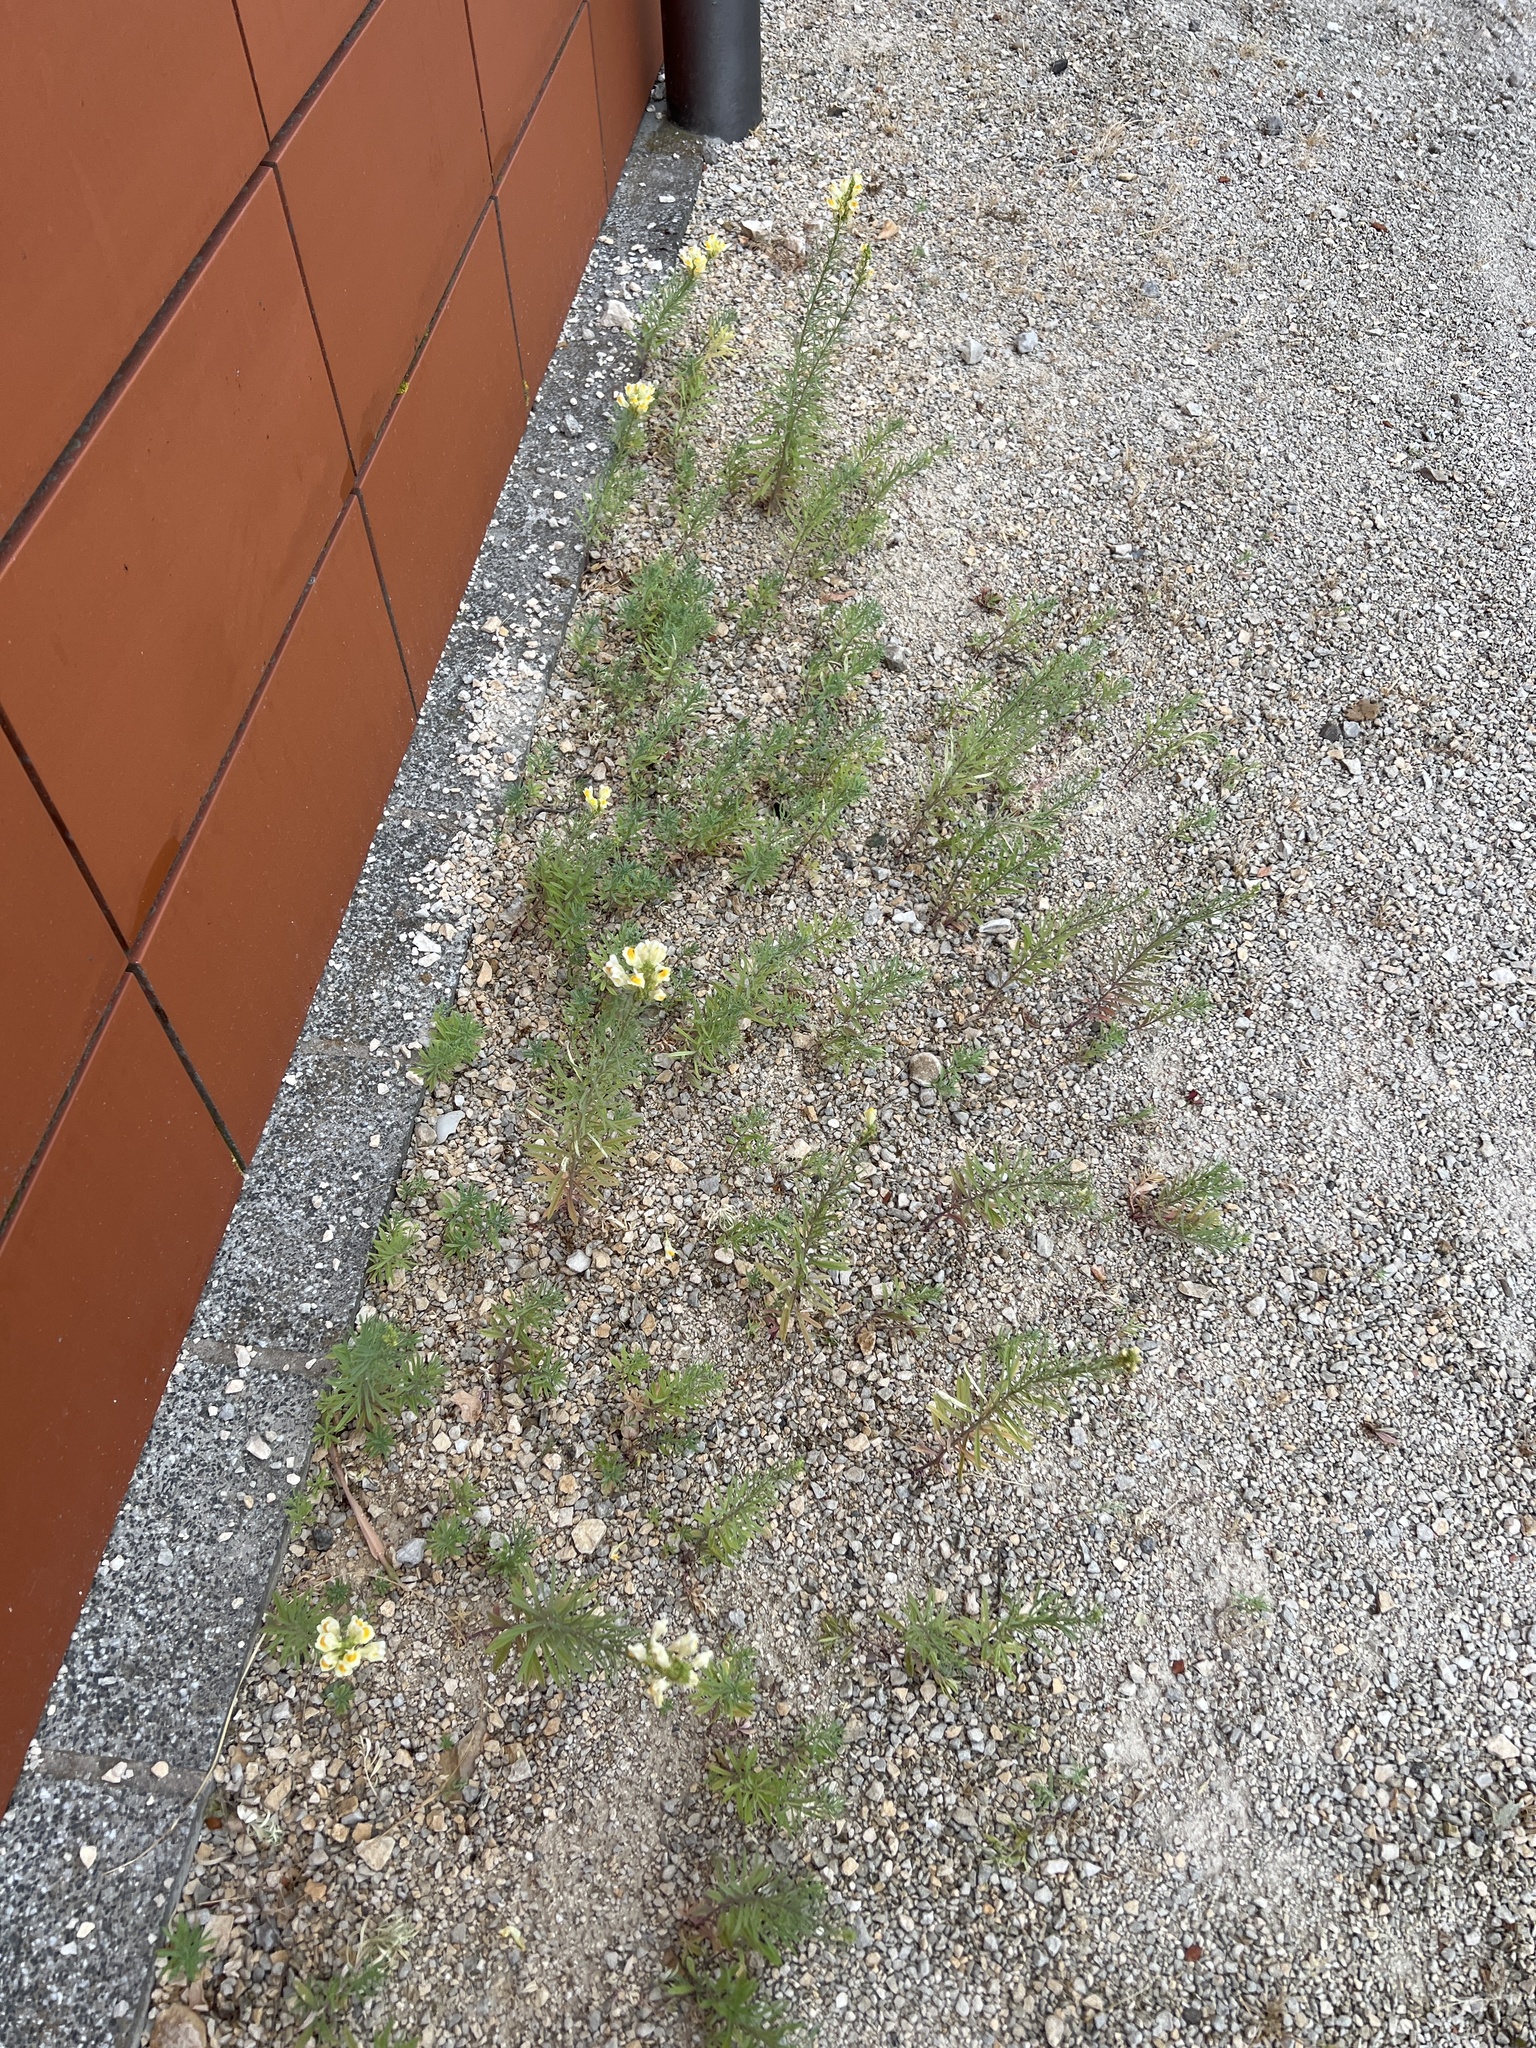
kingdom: Plantae
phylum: Tracheophyta
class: Magnoliopsida
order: Lamiales
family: Plantaginaceae
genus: Linaria
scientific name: Linaria vulgaris
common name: Butter and eggs
